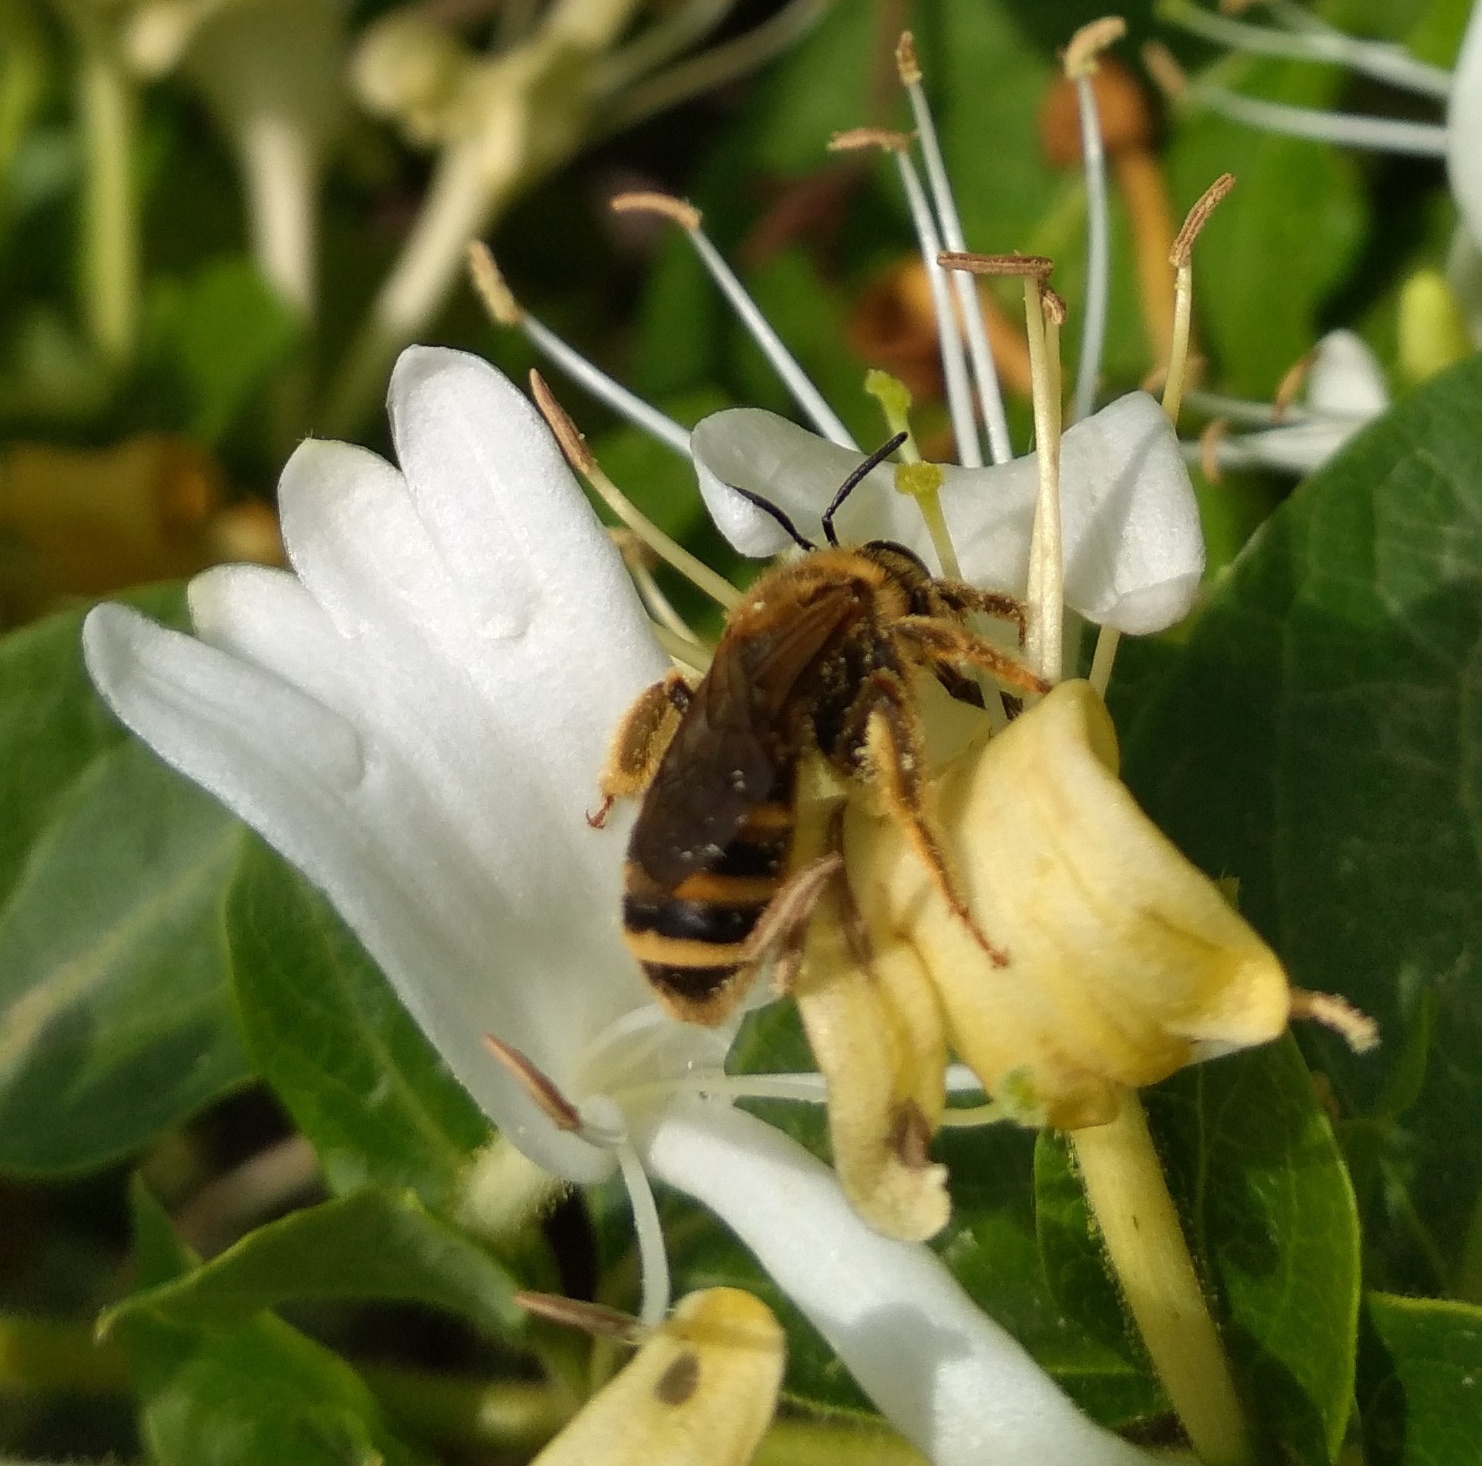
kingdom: Animalia
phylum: Arthropoda
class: Insecta
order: Hymenoptera
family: Halictidae
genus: Halictus
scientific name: Halictus scabiosae
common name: Great banded furrow bee
